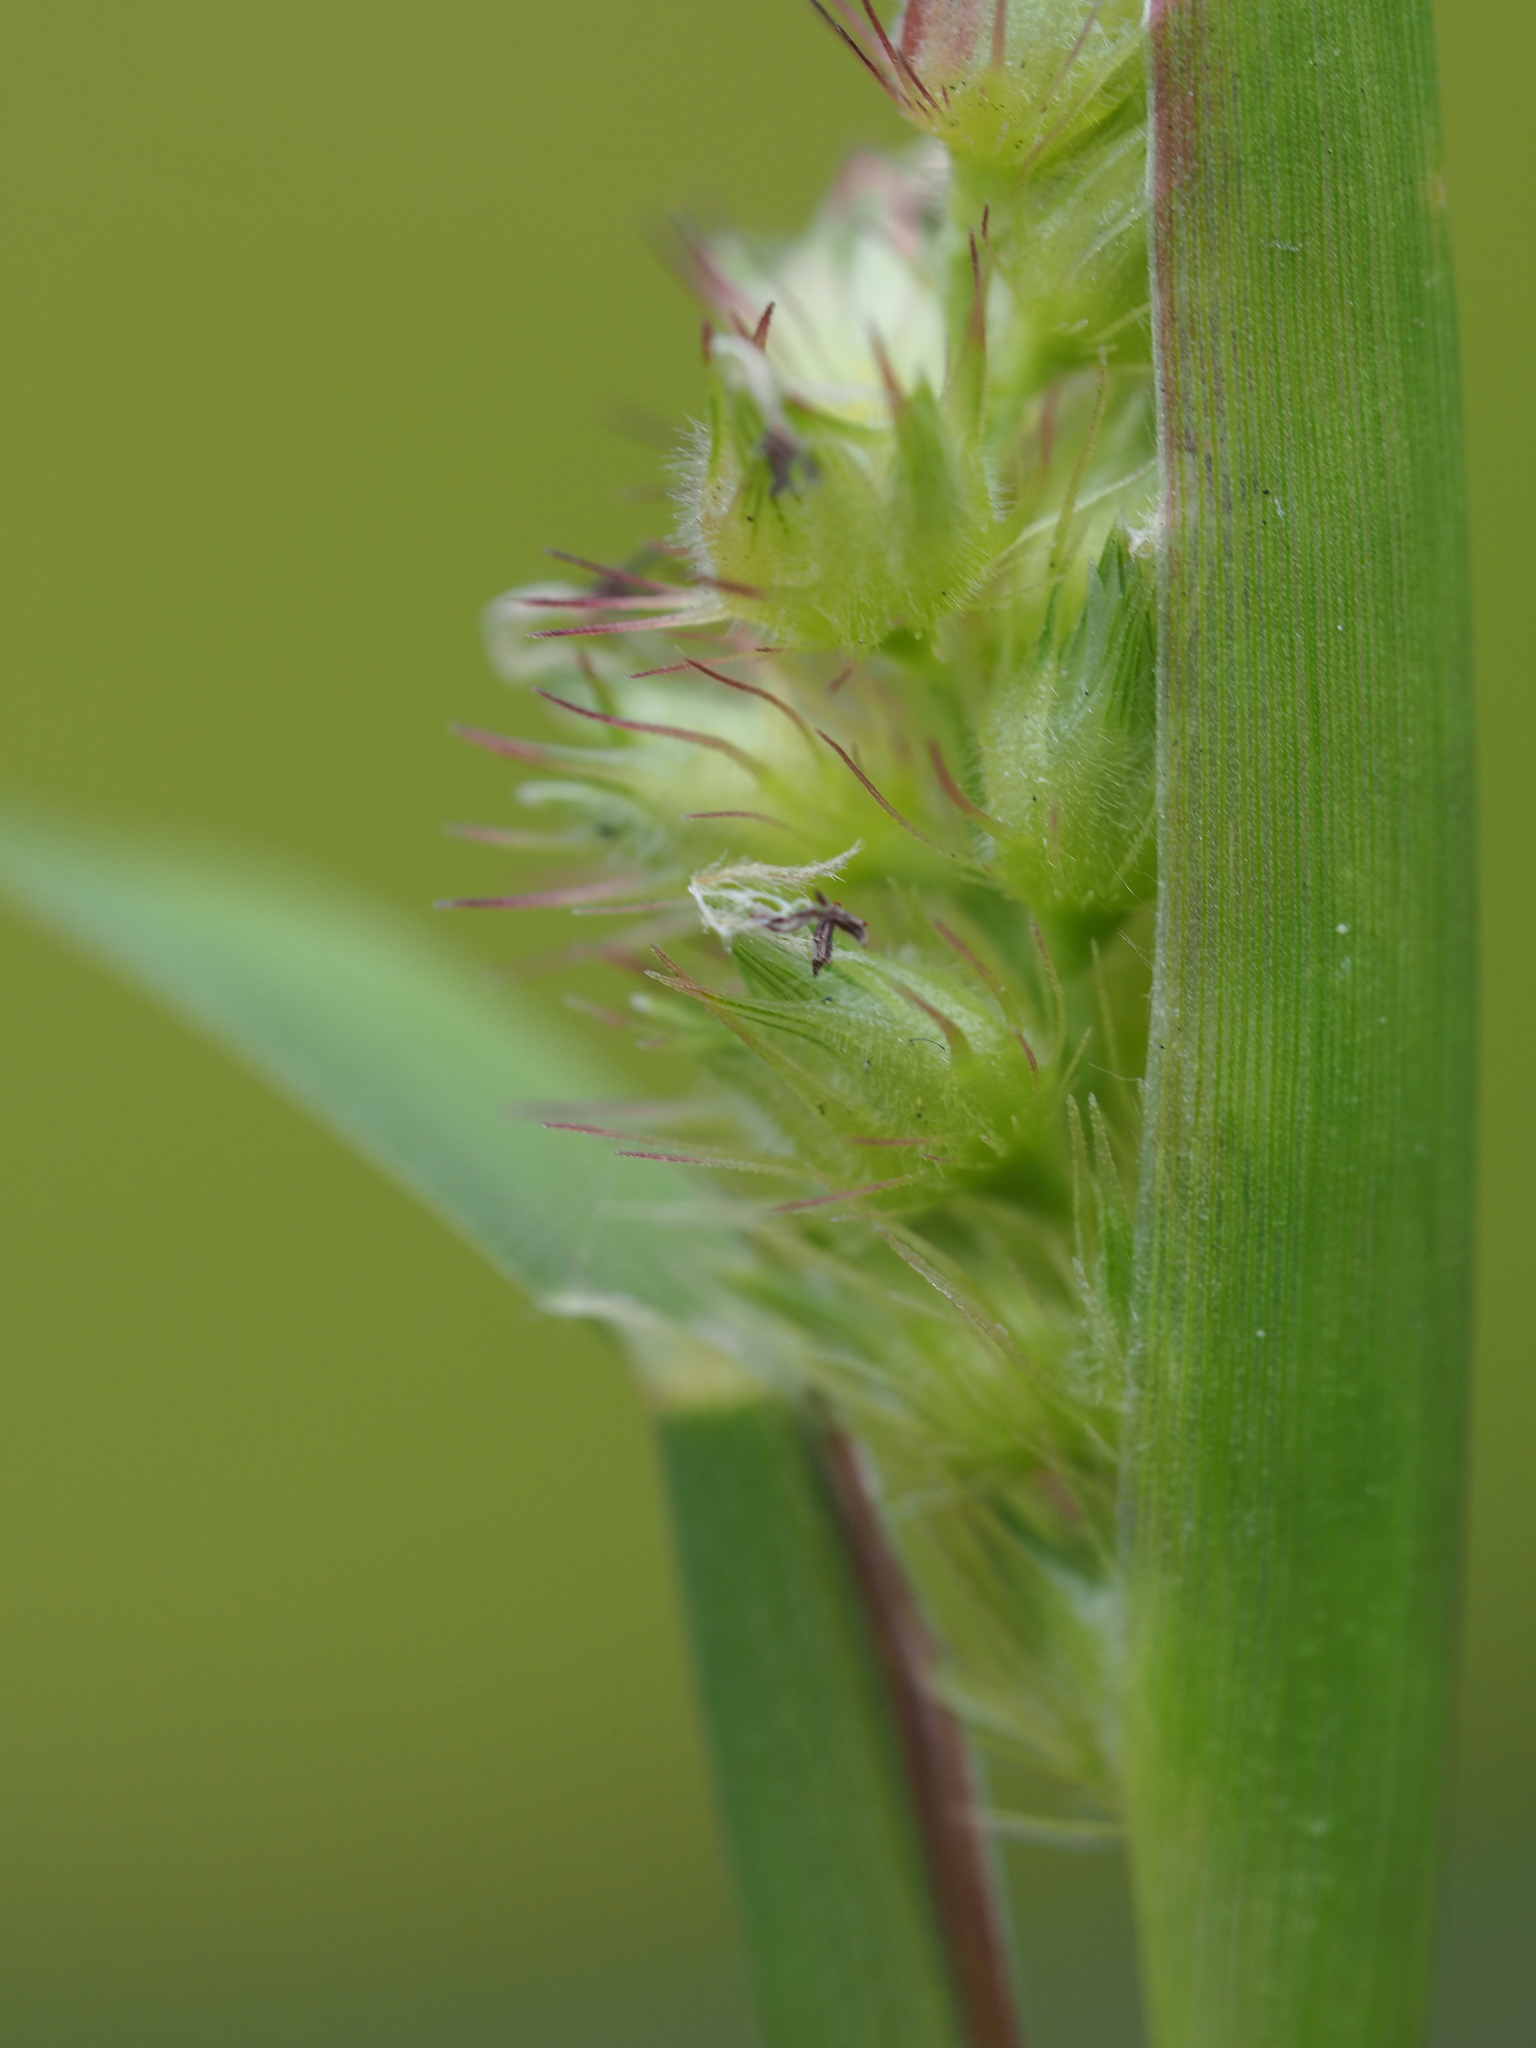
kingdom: Plantae
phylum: Tracheophyta
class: Liliopsida
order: Poales
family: Poaceae
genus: Cenchrus
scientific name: Cenchrus echinatus
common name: Southern sandbur
